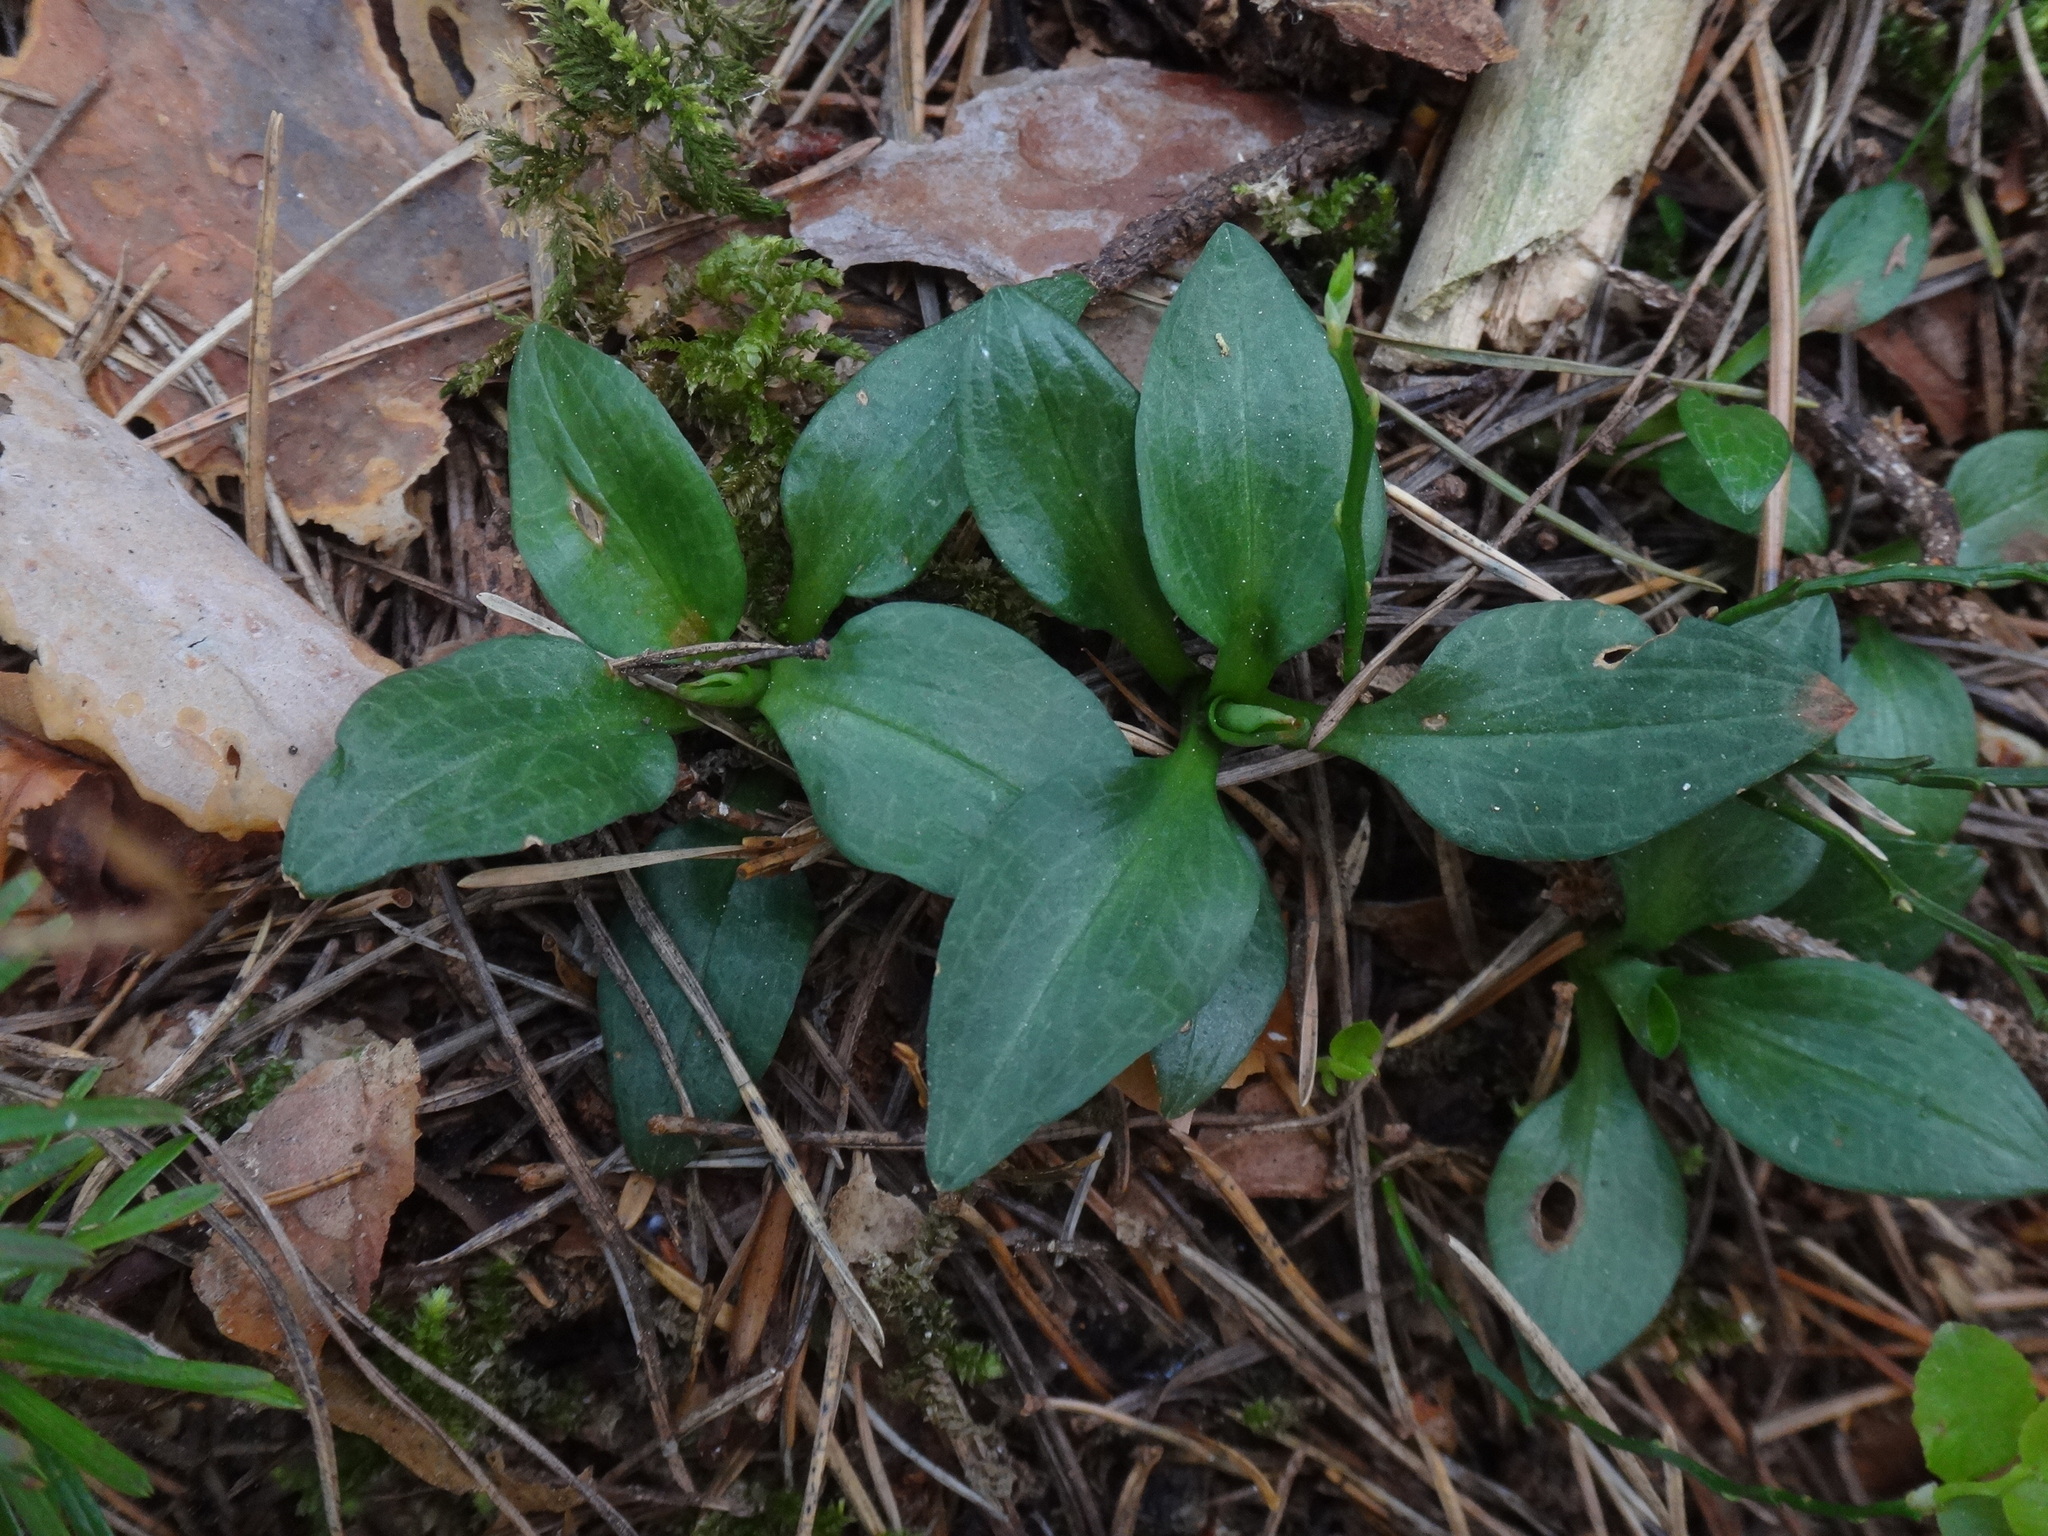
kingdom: Plantae
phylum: Tracheophyta
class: Liliopsida
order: Asparagales
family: Orchidaceae
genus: Goodyera
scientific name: Goodyera repens
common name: Creeping lady's-tresses
